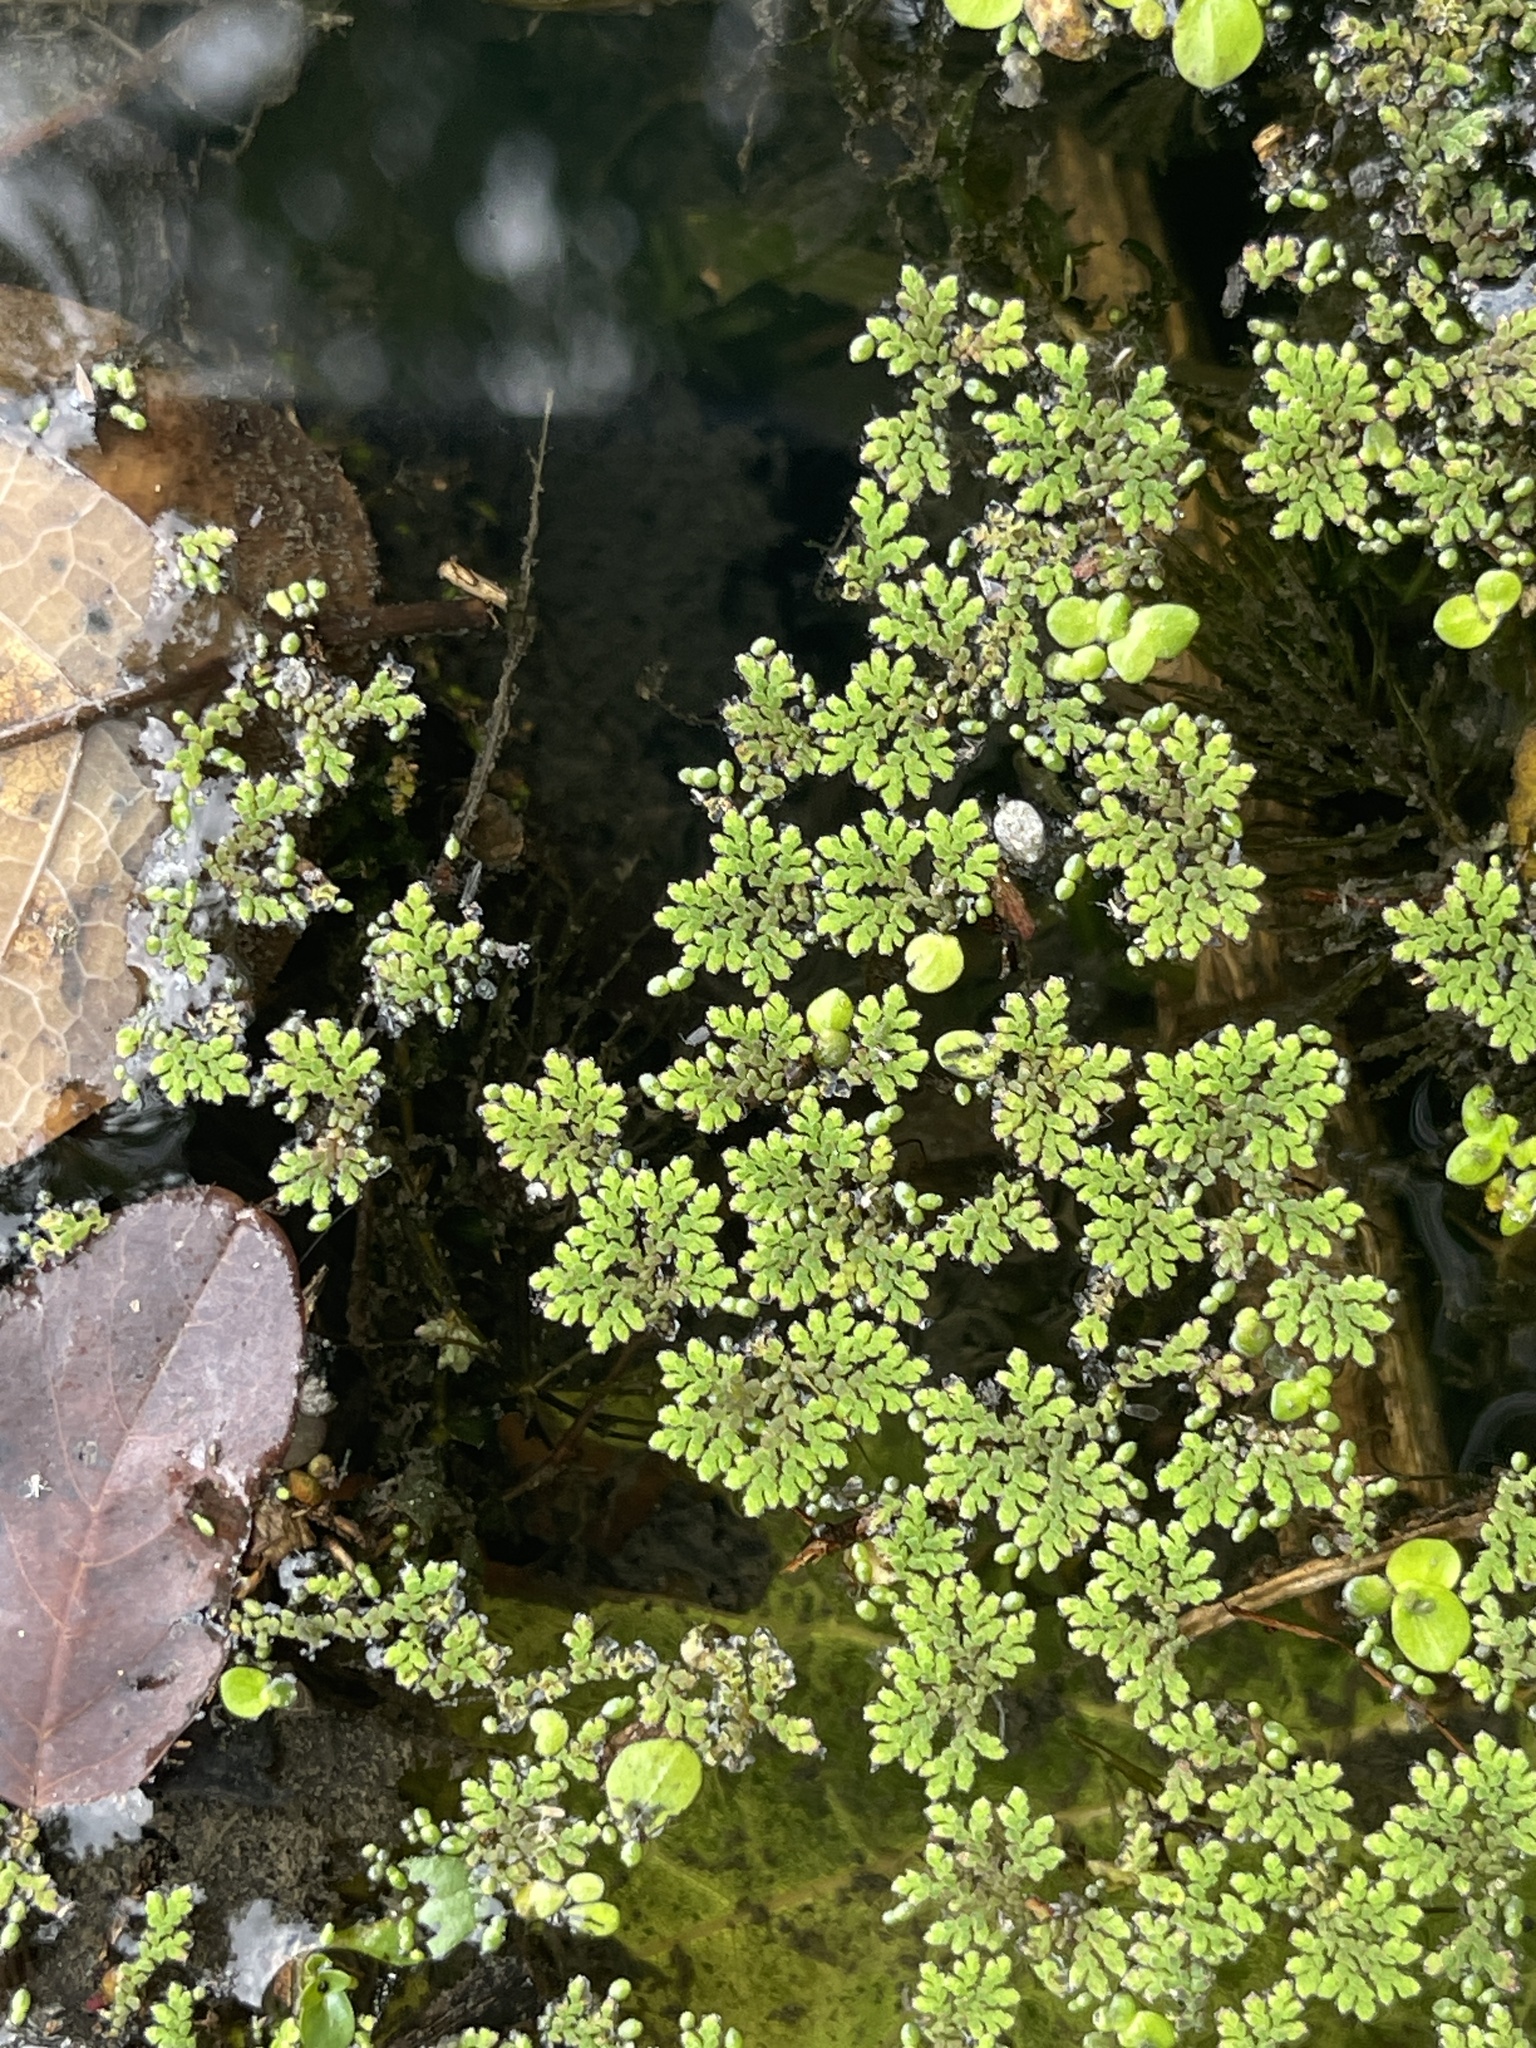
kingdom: Plantae
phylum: Tracheophyta
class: Polypodiopsida
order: Salviniales
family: Salviniaceae
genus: Azolla
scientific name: Azolla caroliniana
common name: Carolina mosquitofern
